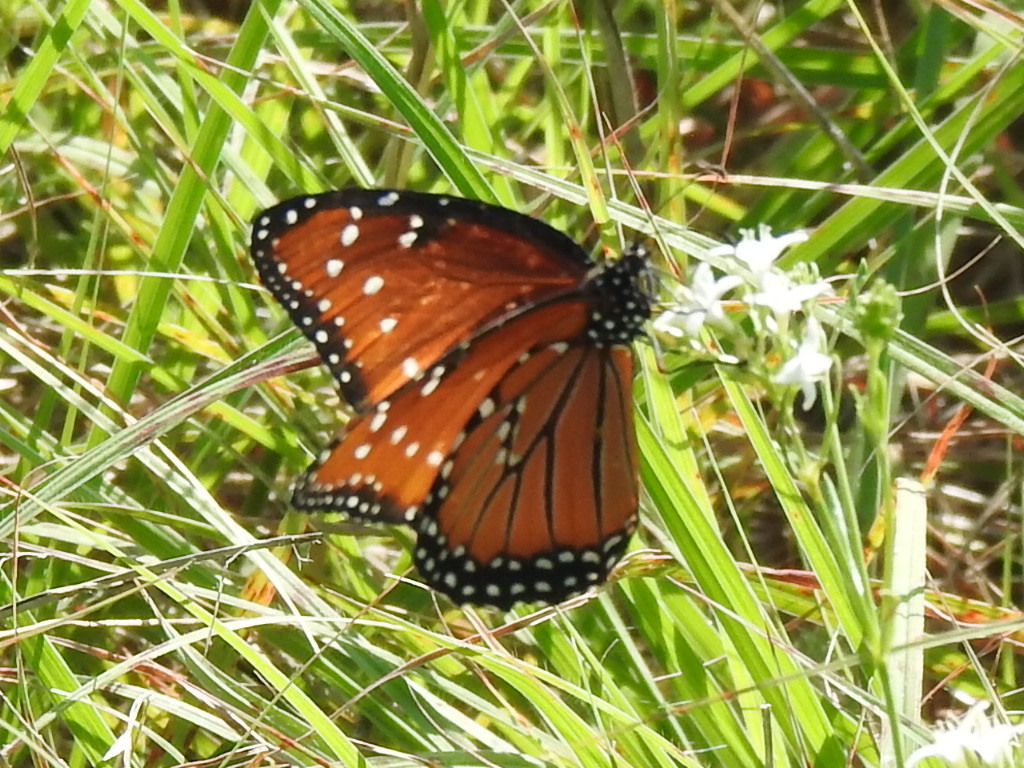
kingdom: Animalia
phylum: Arthropoda
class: Insecta
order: Lepidoptera
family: Nymphalidae
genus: Danaus
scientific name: Danaus gilippus
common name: Queen
